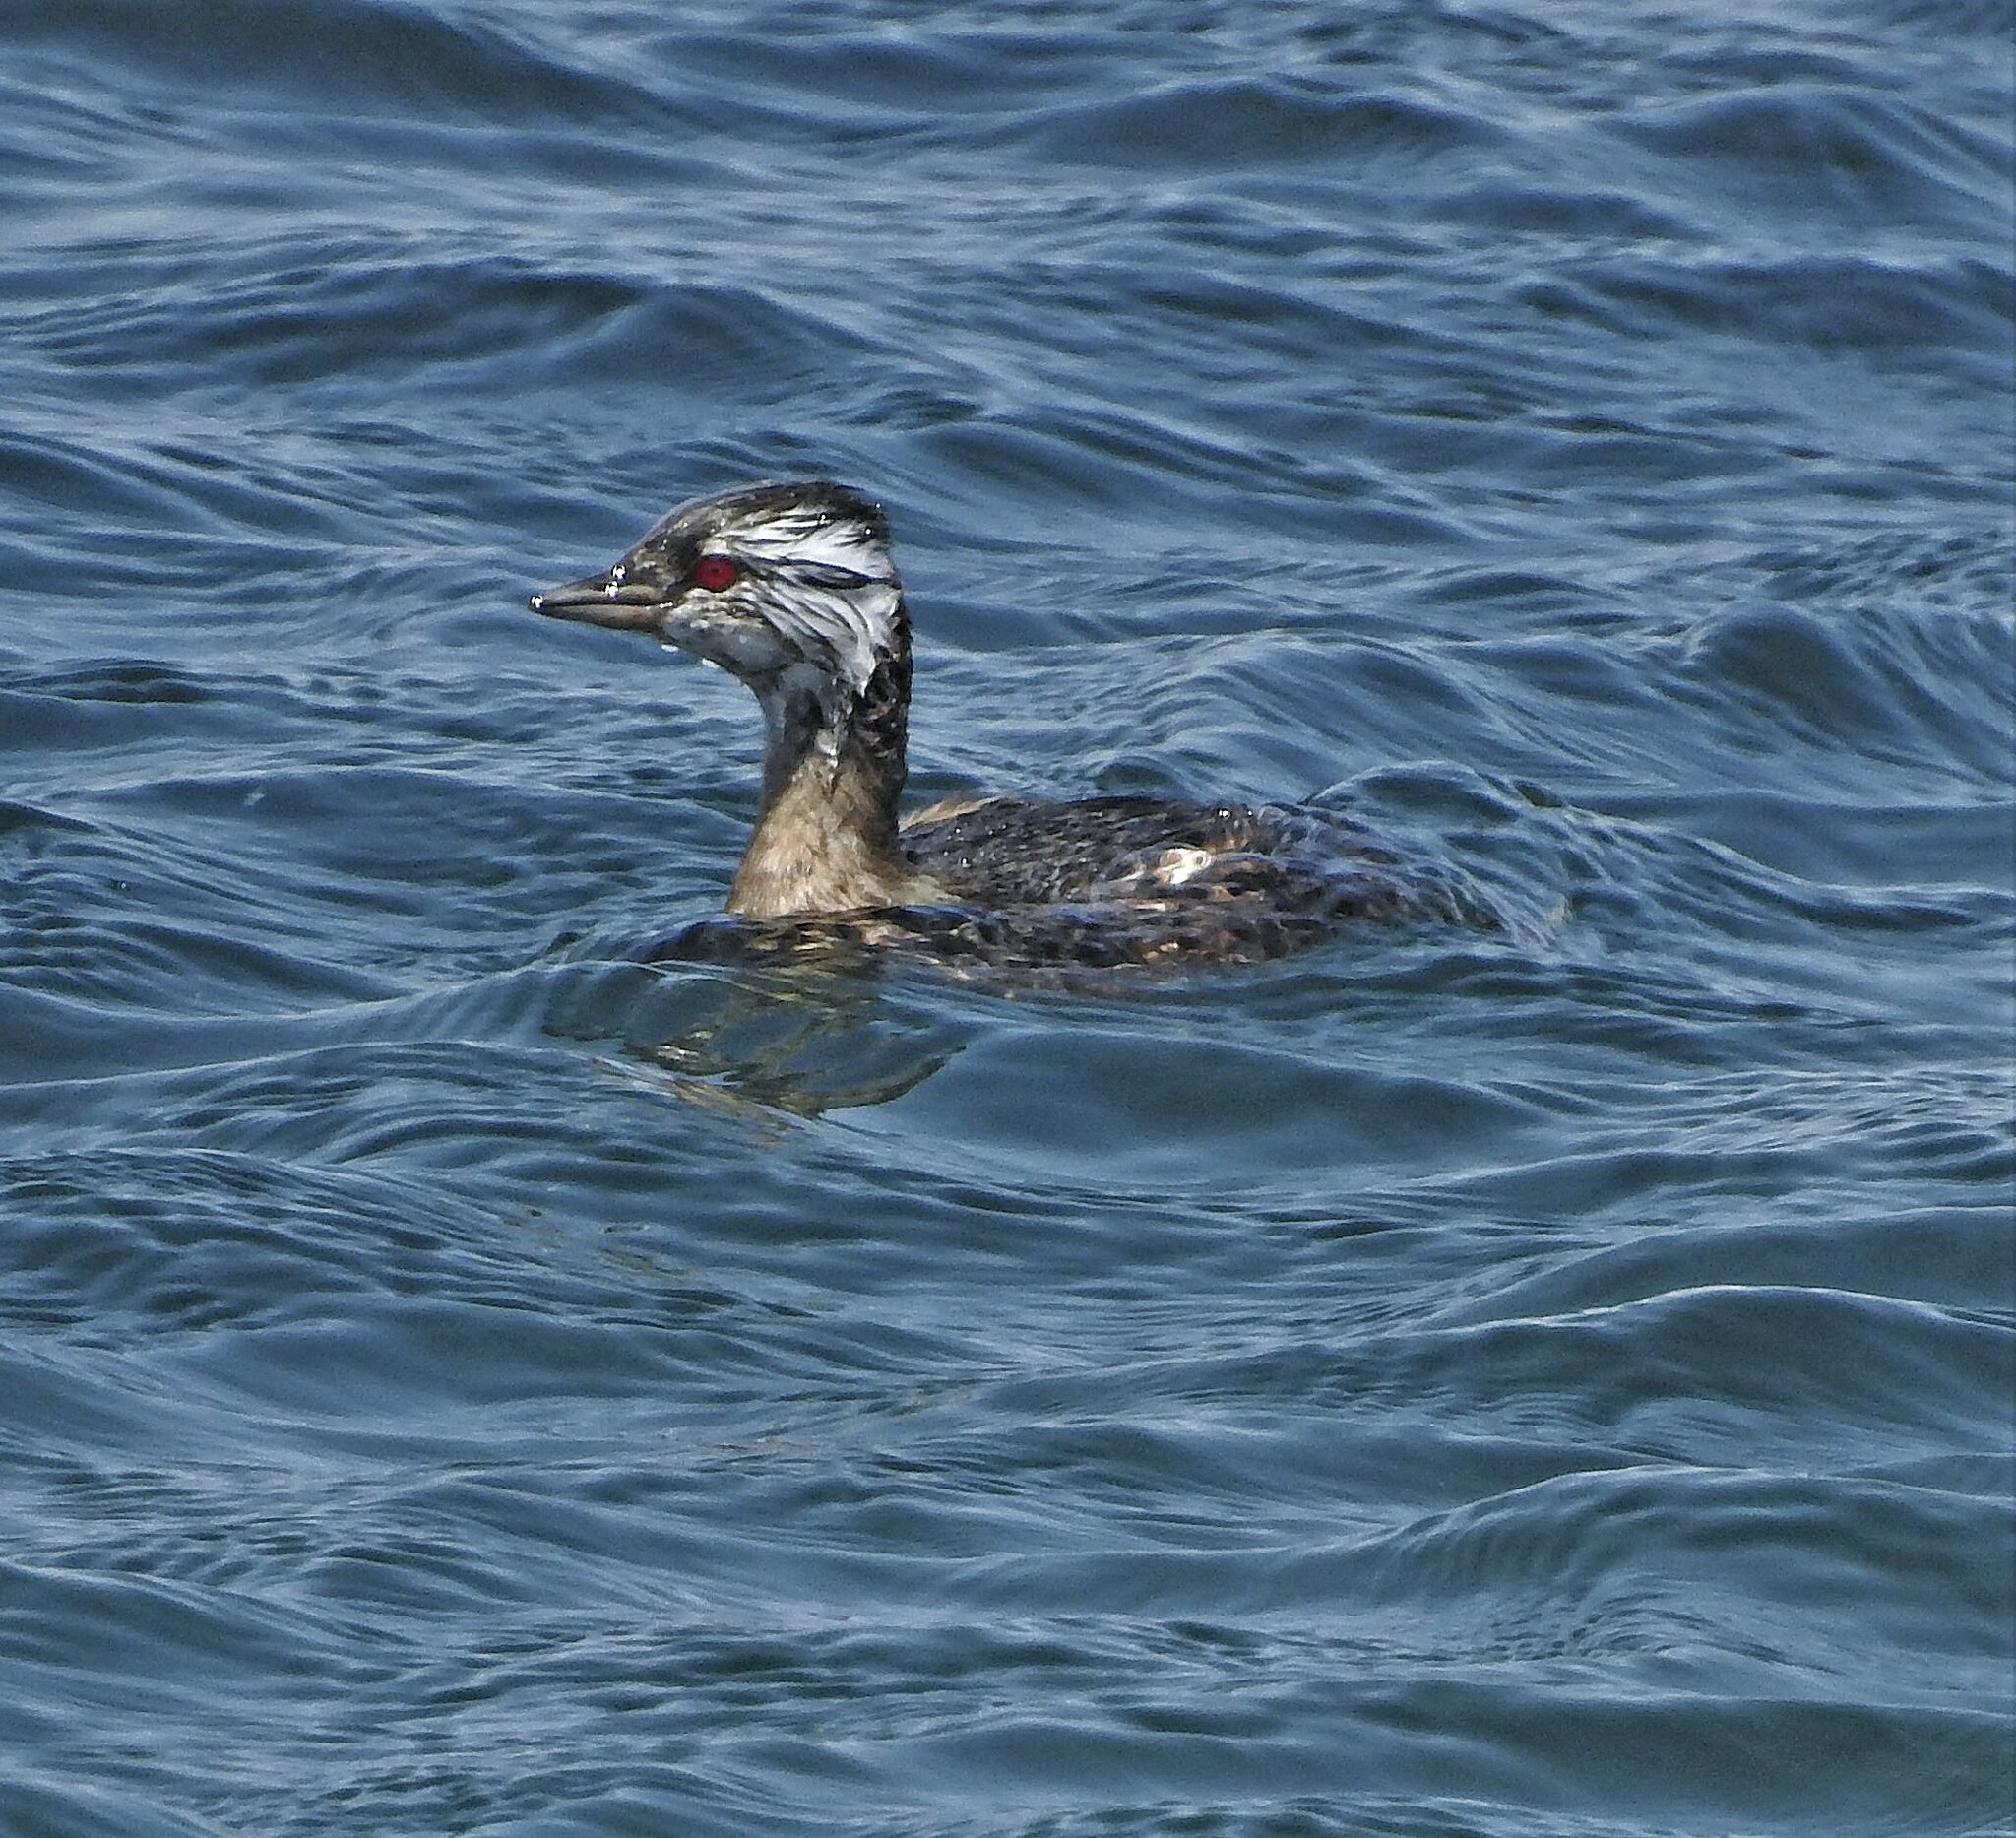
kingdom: Animalia
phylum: Chordata
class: Aves
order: Podicipediformes
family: Podicipedidae
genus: Rollandia
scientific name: Rollandia rolland
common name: White-tufted grebe
